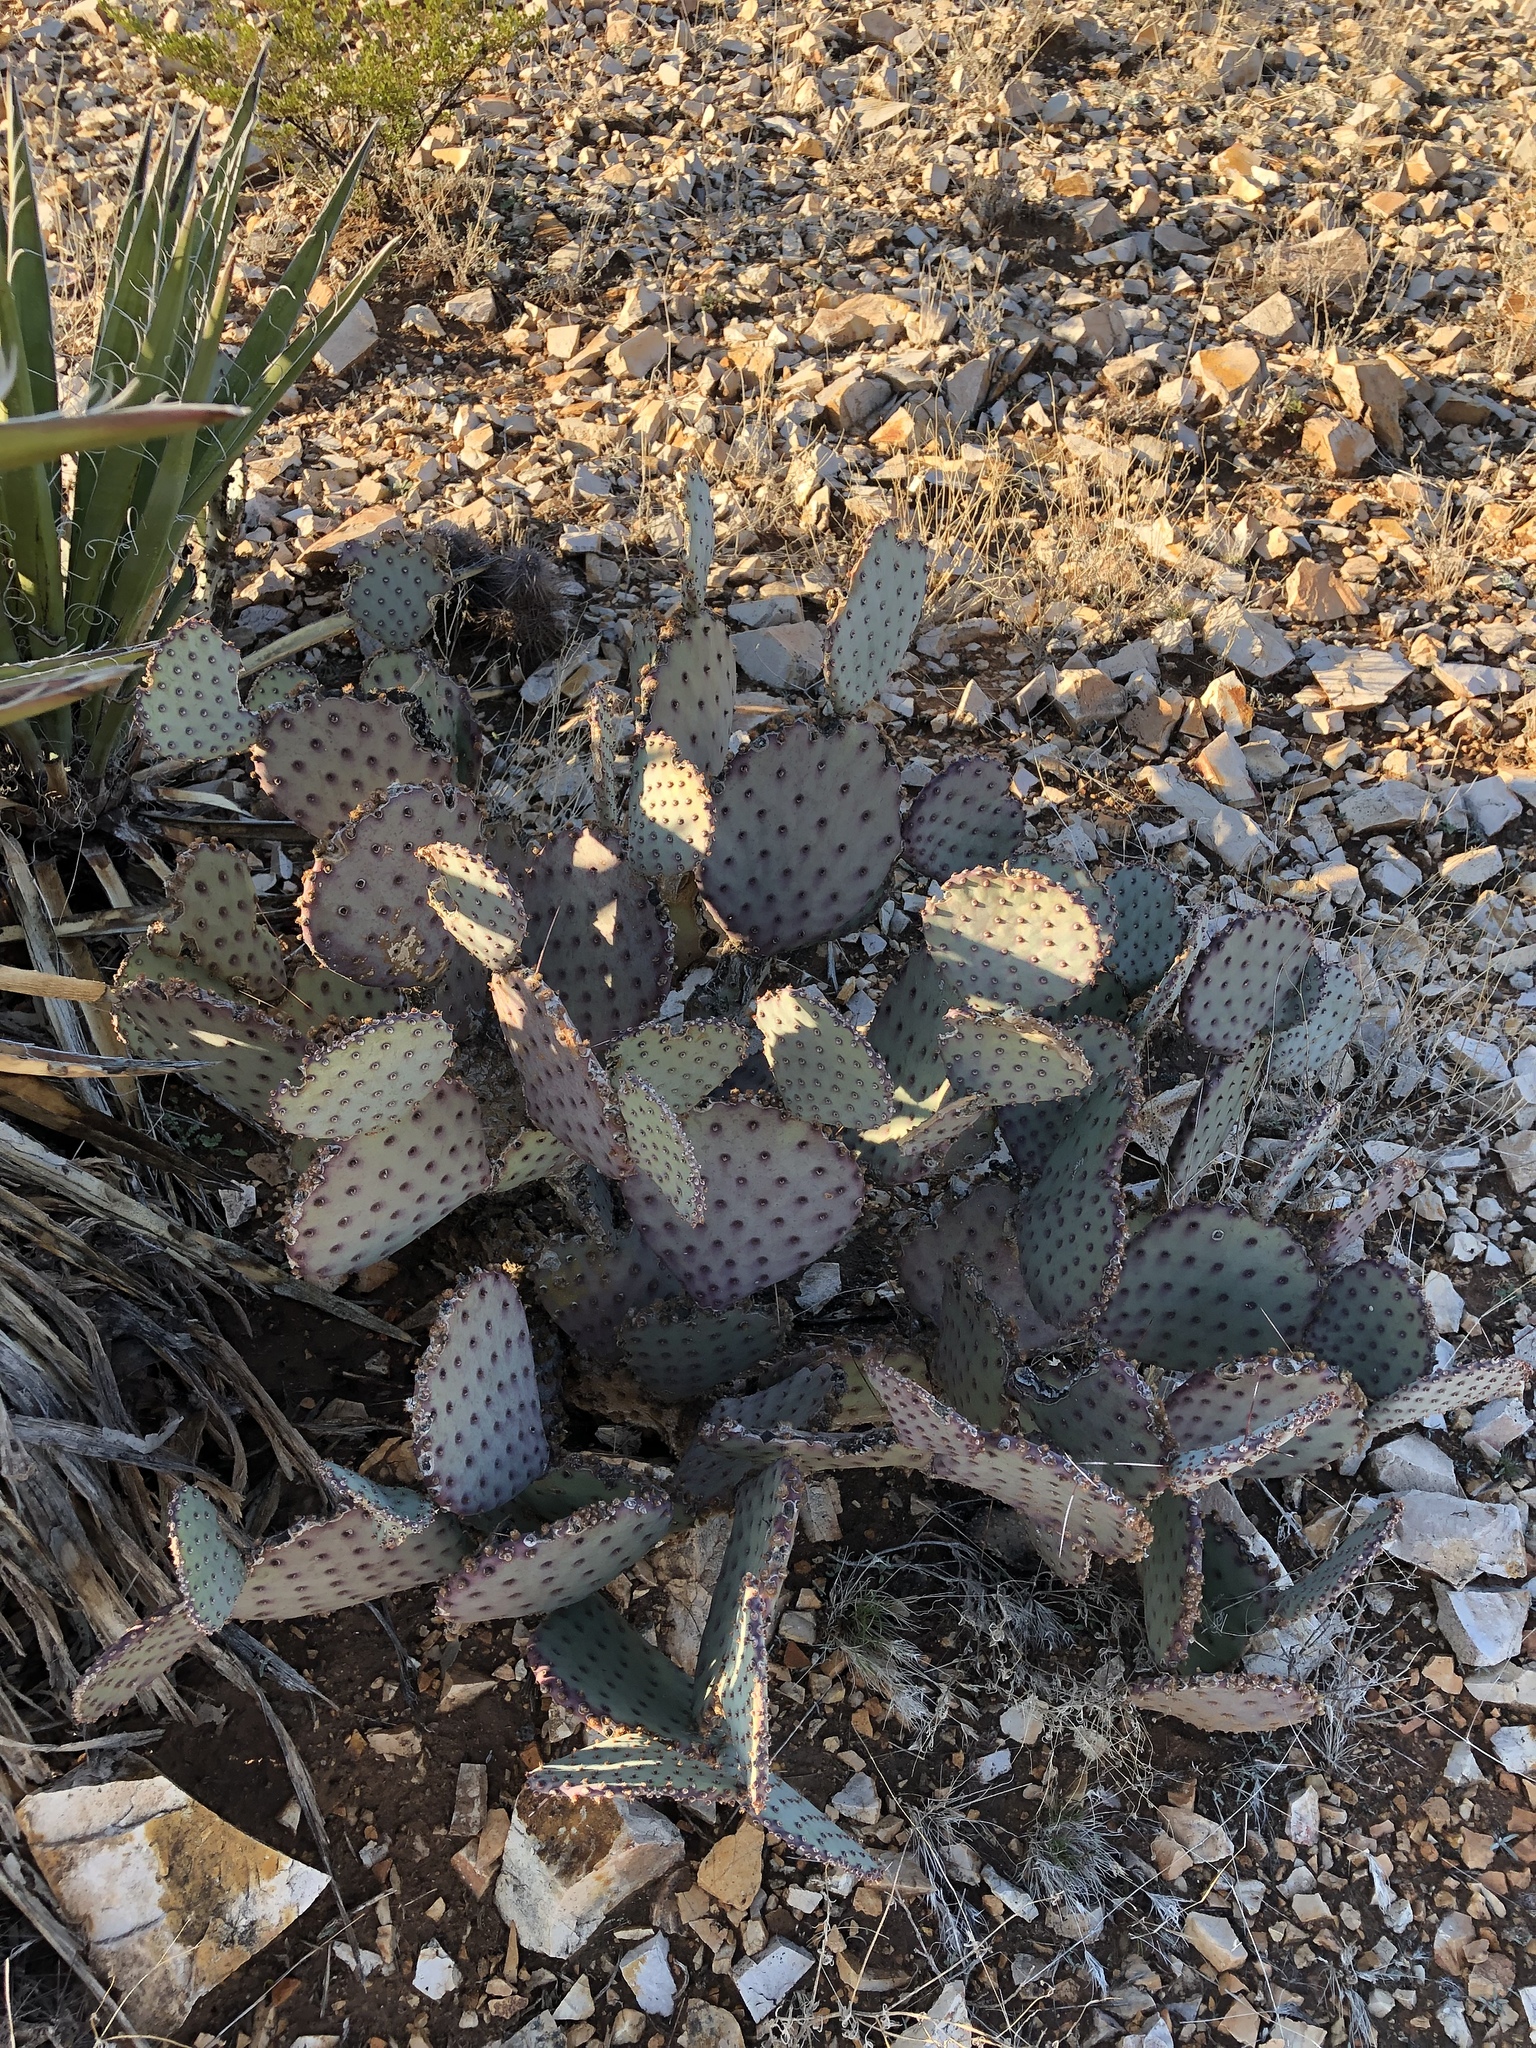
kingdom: Plantae
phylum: Tracheophyta
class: Magnoliopsida
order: Caryophyllales
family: Cactaceae
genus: Opuntia
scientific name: Opuntia macrocentra
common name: Purple prickly-pear
